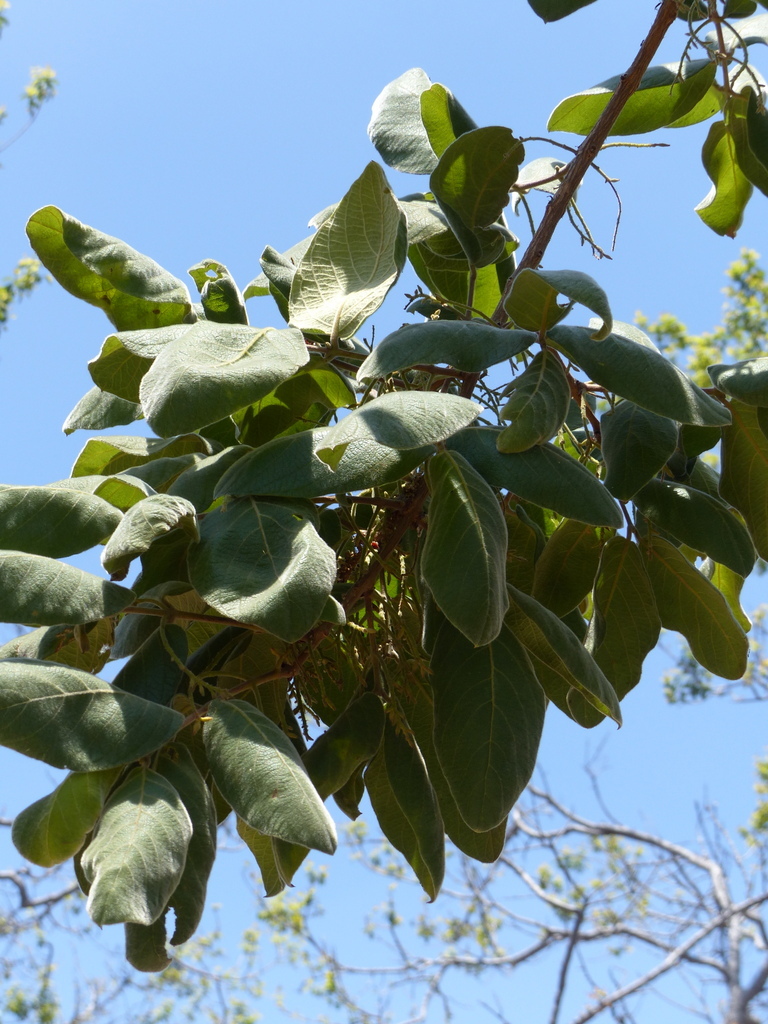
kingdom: Plantae
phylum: Tracheophyta
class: Magnoliopsida
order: Myrtales
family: Combretaceae
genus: Combretum
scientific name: Combretum molle
